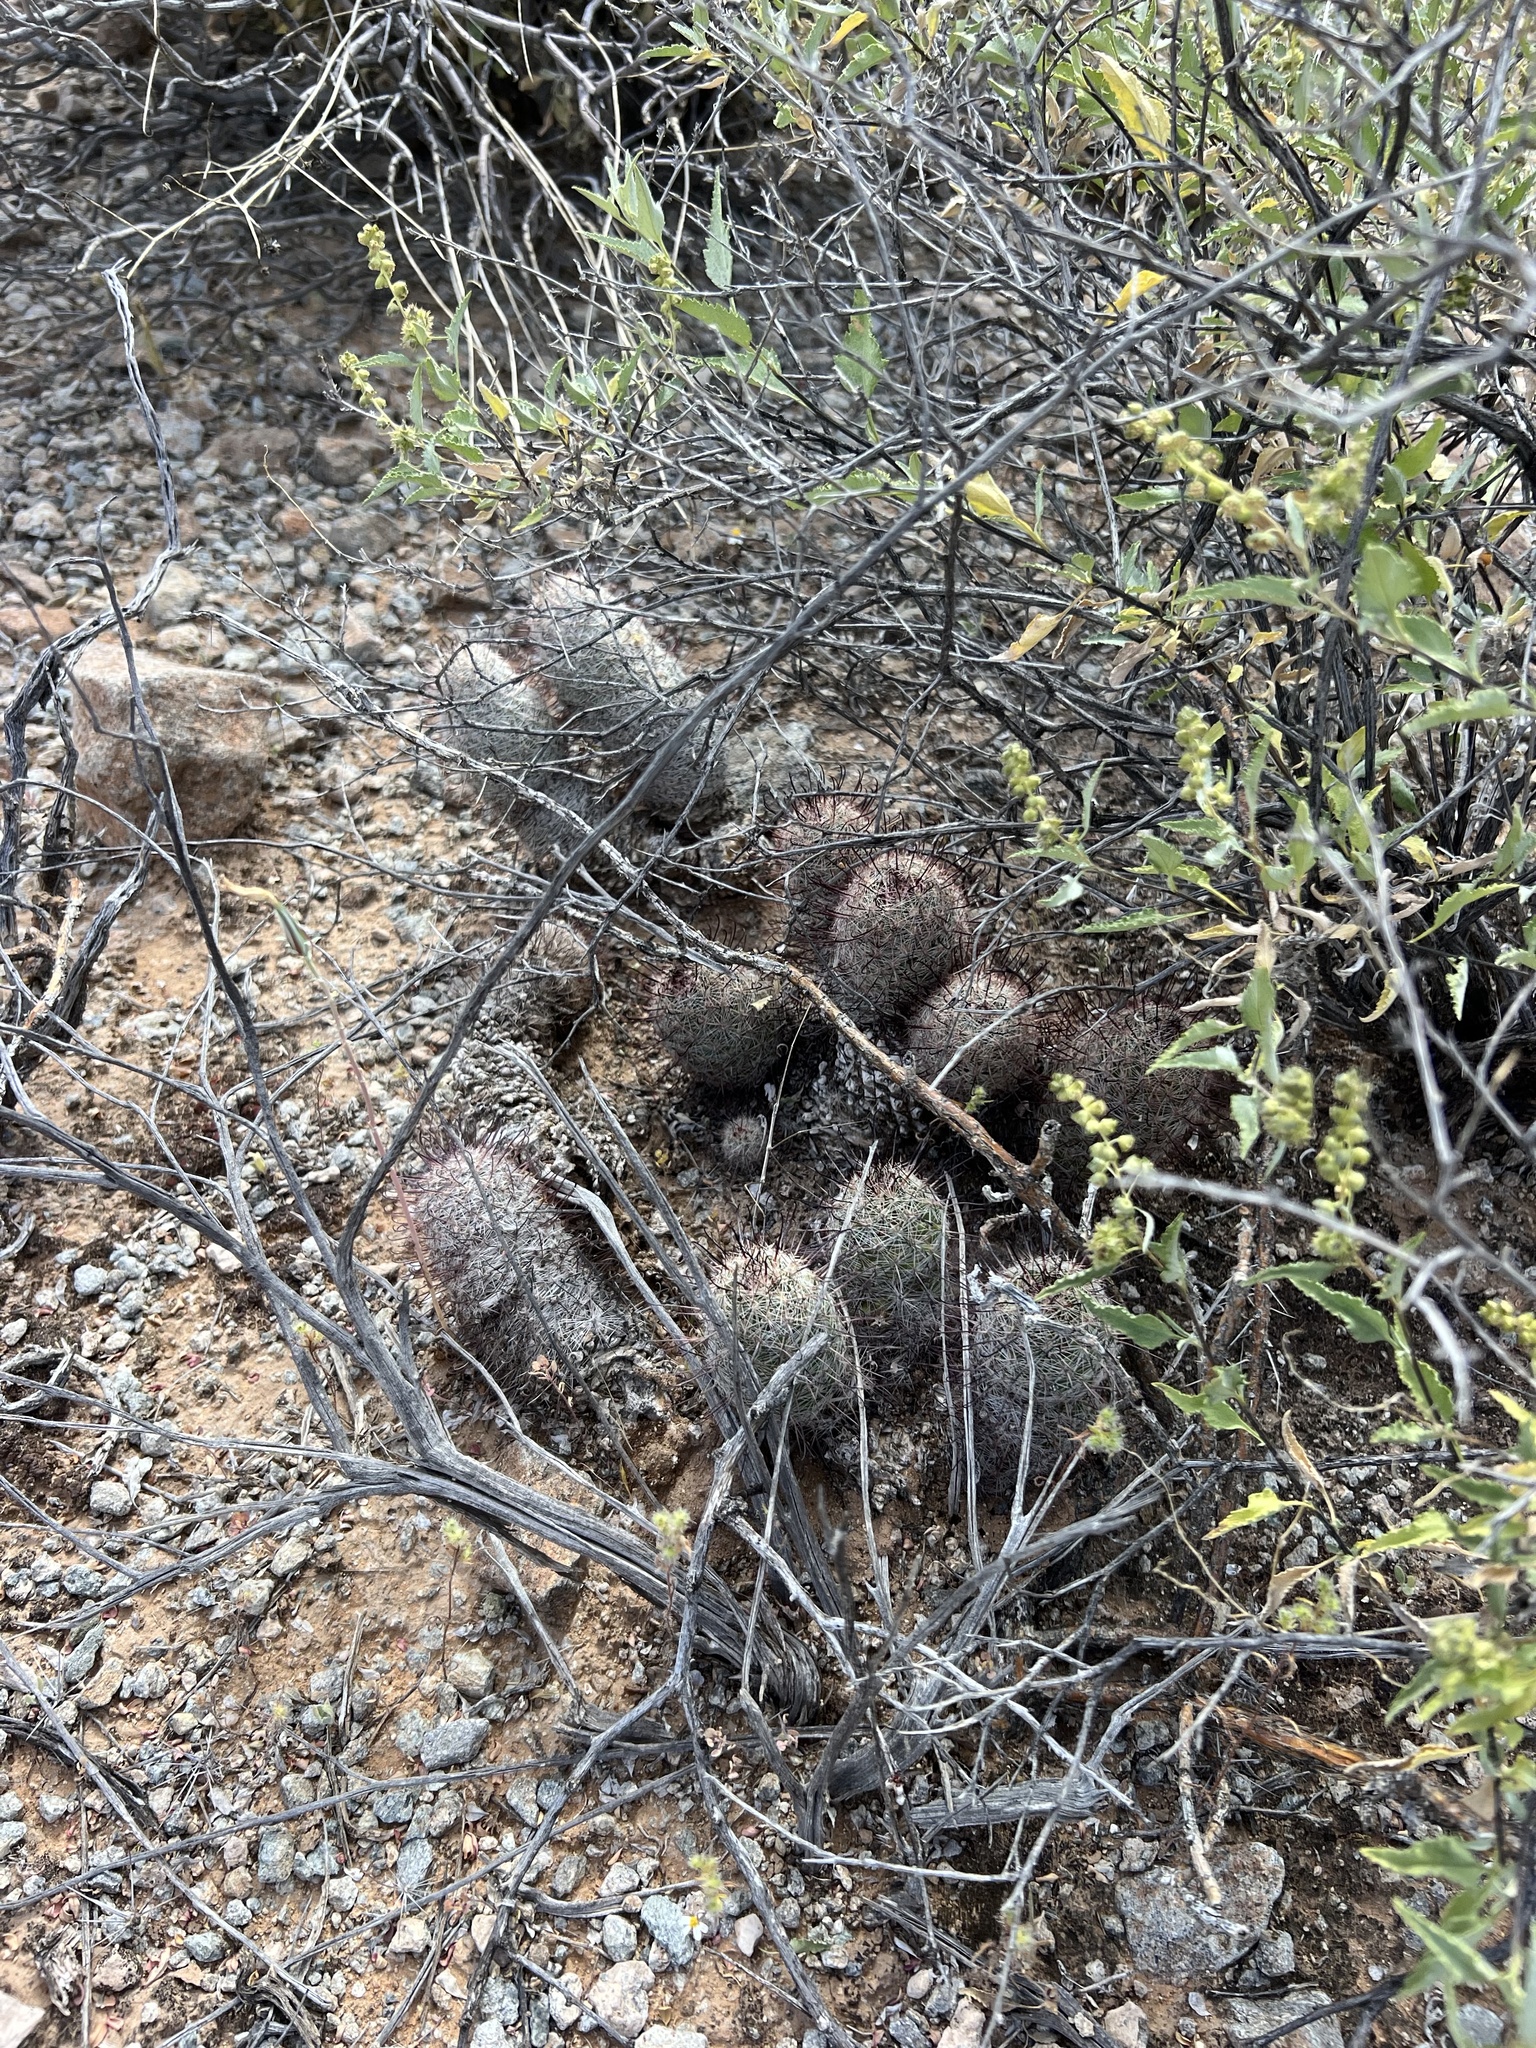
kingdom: Plantae
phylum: Tracheophyta
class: Magnoliopsida
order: Caryophyllales
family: Cactaceae
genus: Cochemiea
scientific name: Cochemiea grahamii
